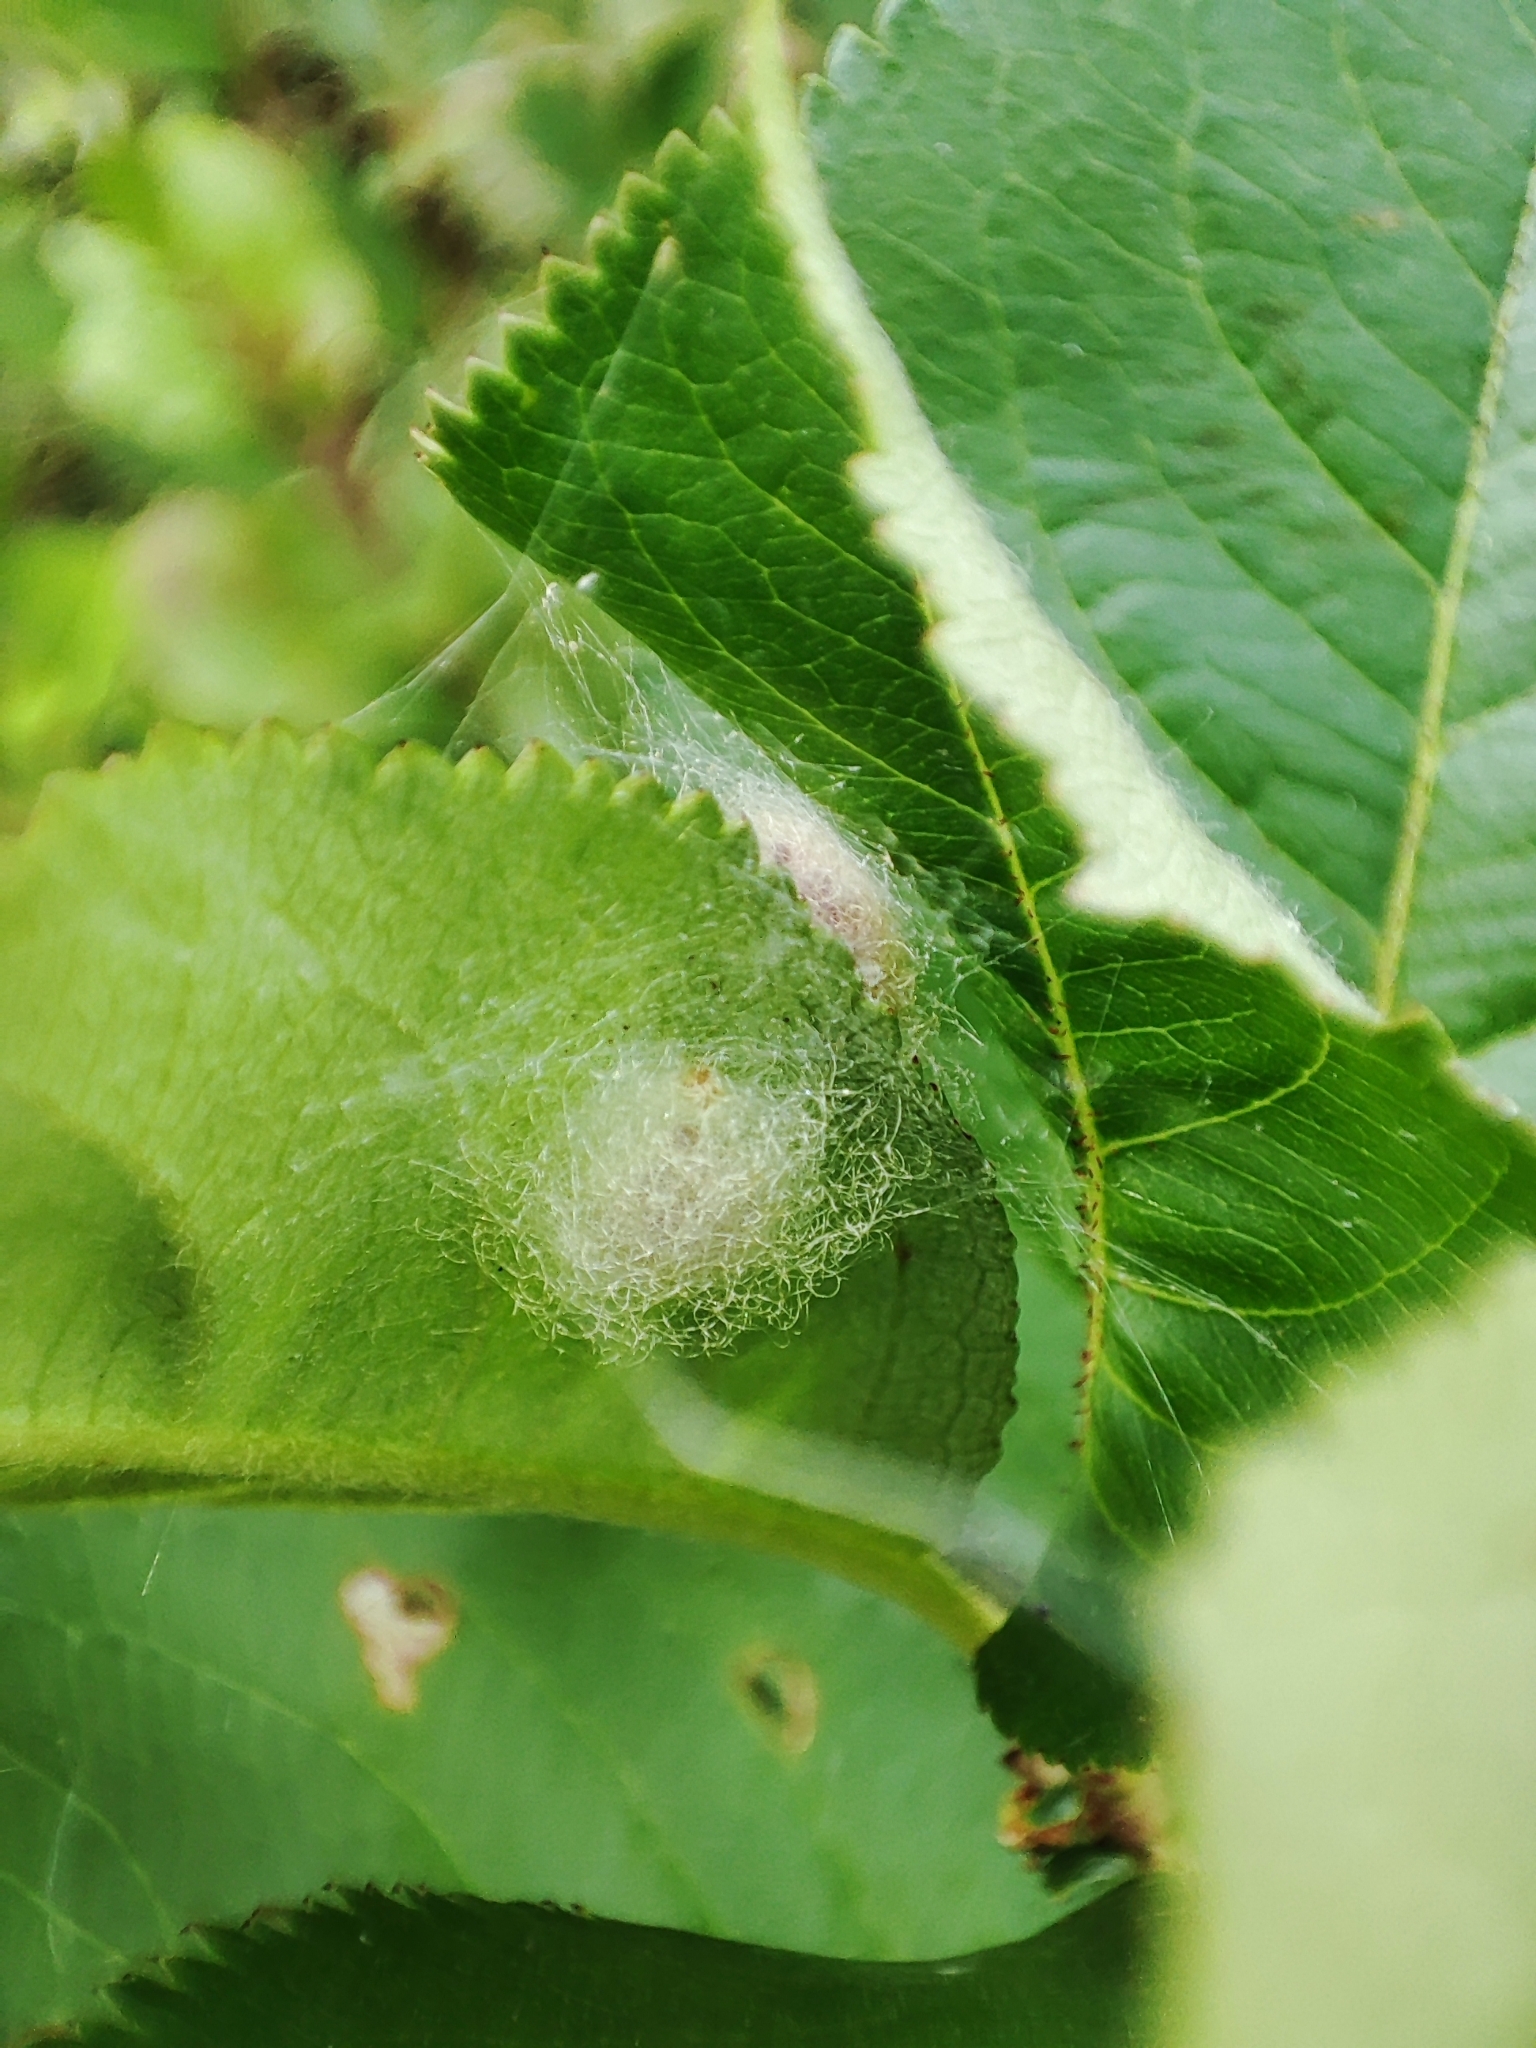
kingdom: Plantae
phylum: Tracheophyta
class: Magnoliopsida
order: Rosales
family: Rosaceae
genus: Sorbaronia
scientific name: Sorbaronia arsenii
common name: Arsène's mountain-ash
